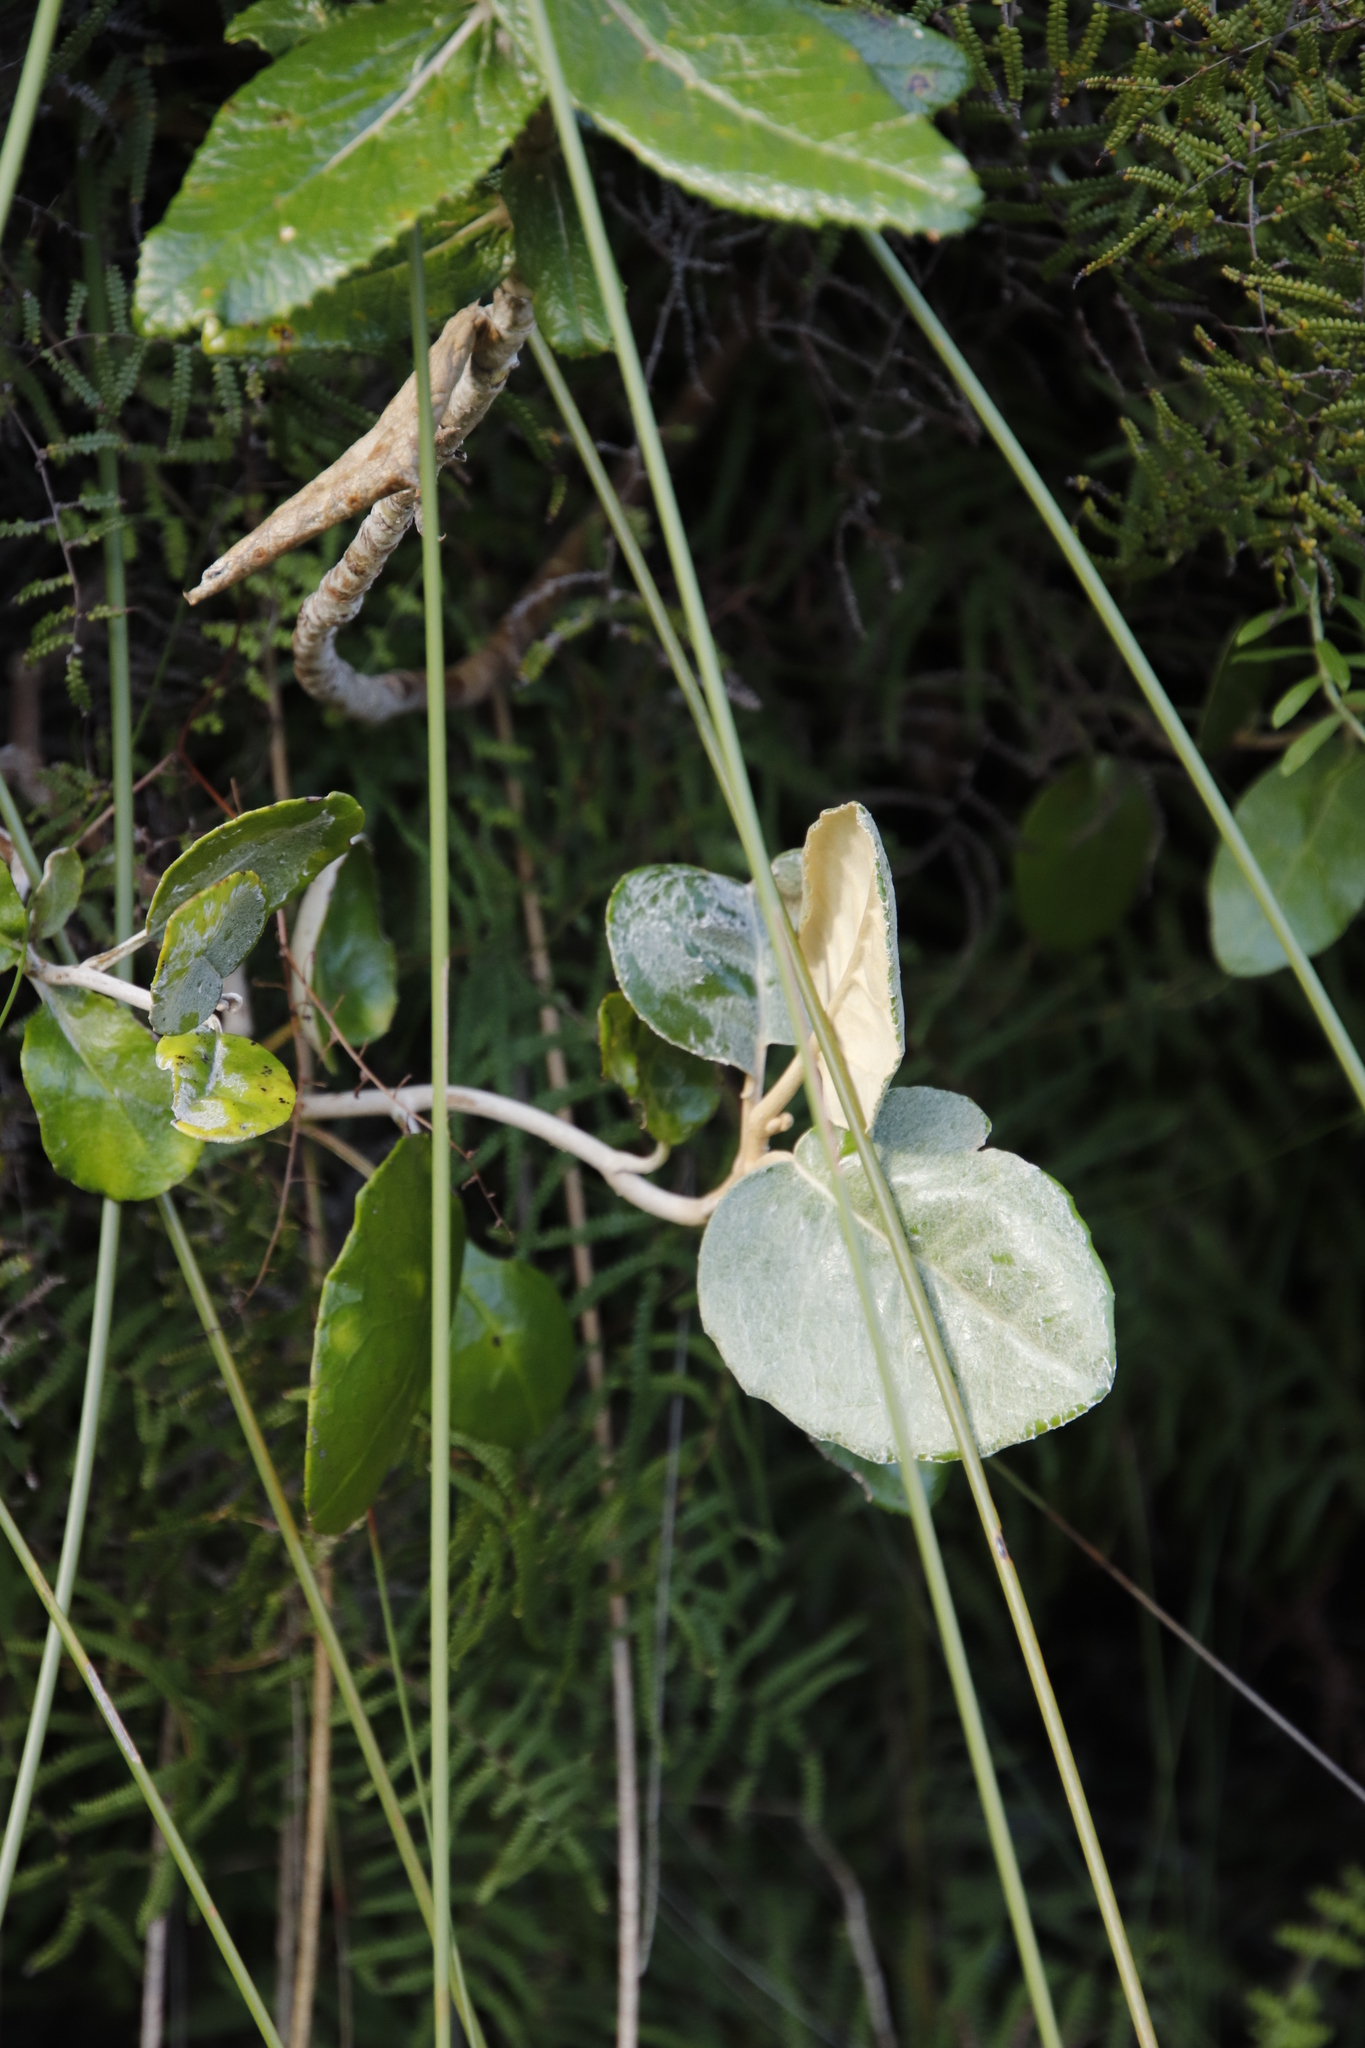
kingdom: Plantae
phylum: Tracheophyta
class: Magnoliopsida
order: Asterales
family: Asteraceae
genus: Capelio
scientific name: Capelio tabularis
